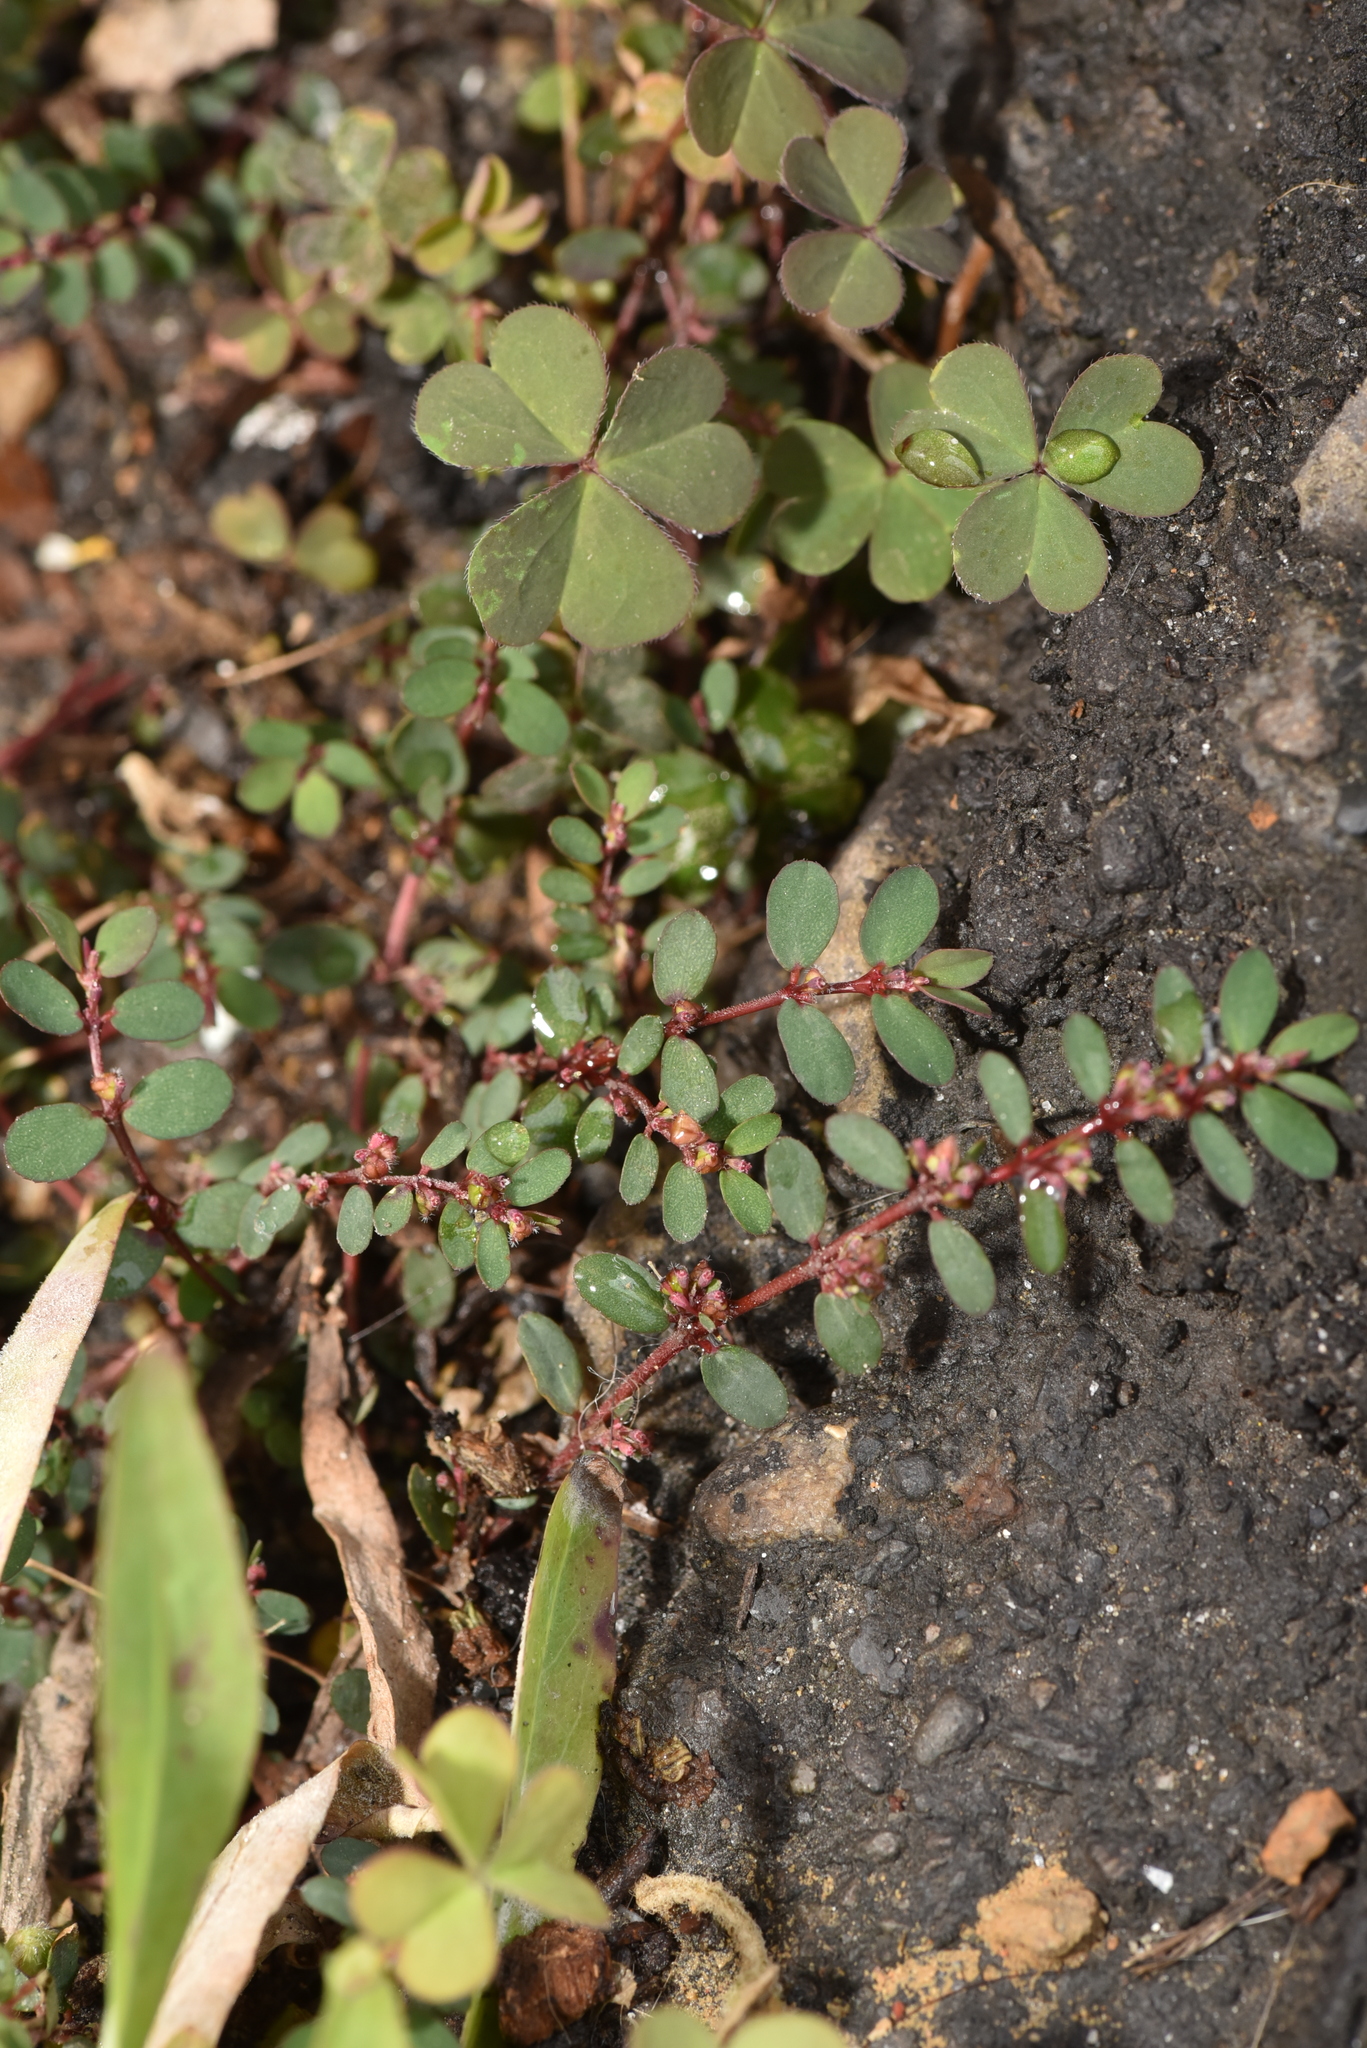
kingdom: Plantae
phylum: Tracheophyta
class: Magnoliopsida
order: Malpighiales
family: Euphorbiaceae
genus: Euphorbia
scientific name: Euphorbia prostrata
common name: Prostrate sandmat
